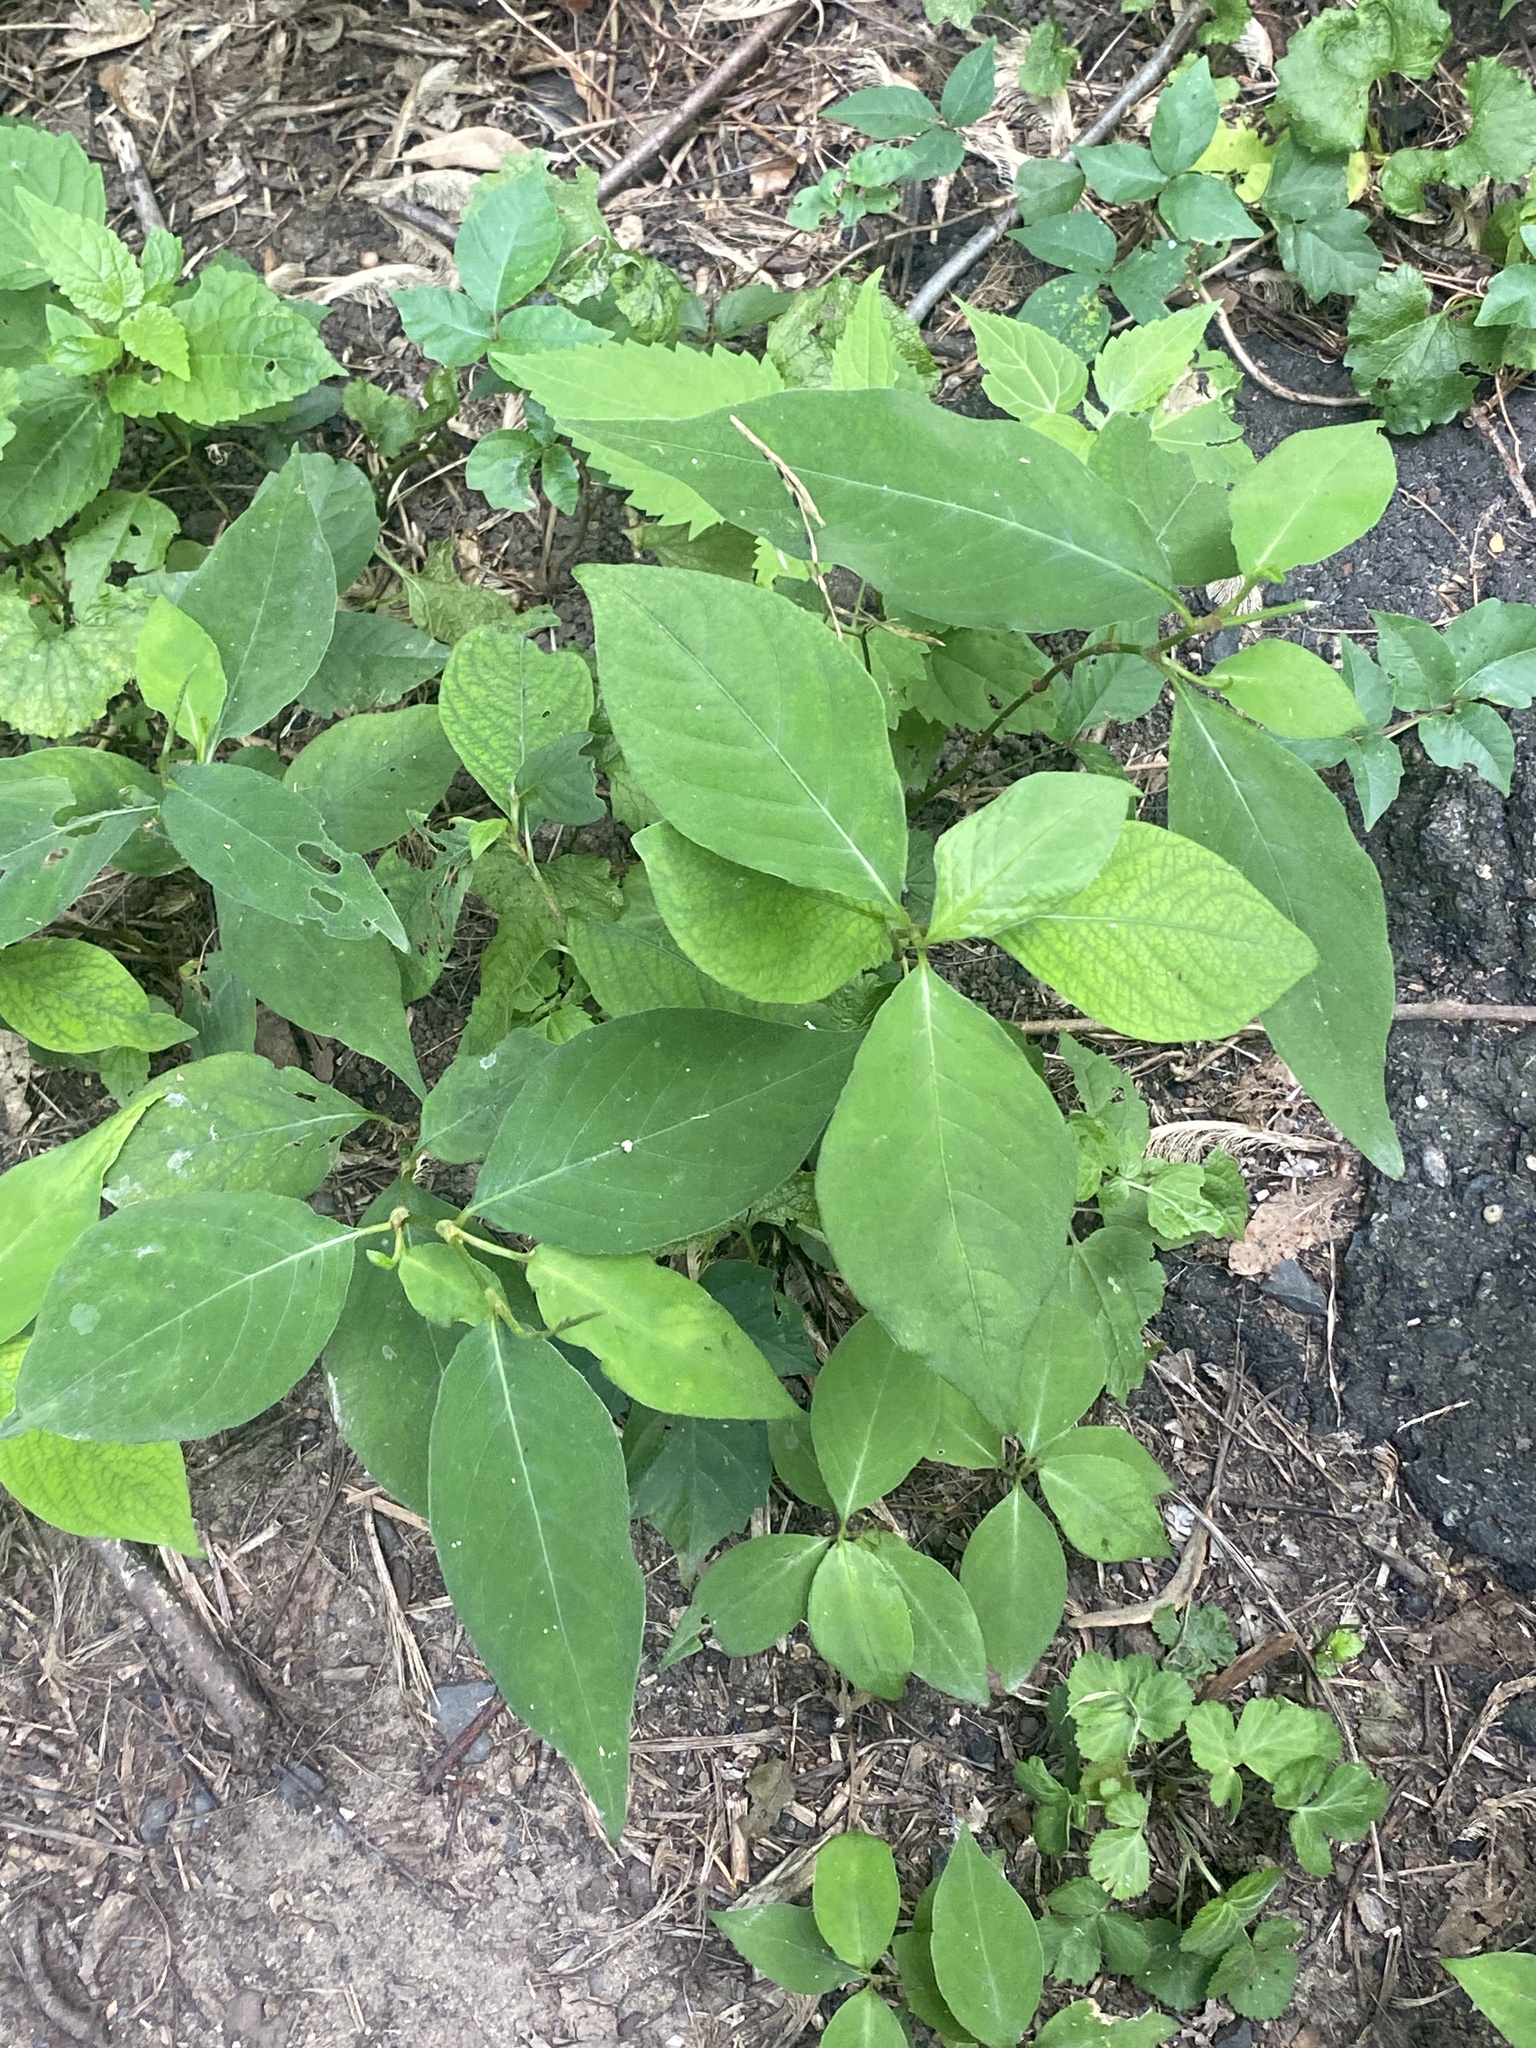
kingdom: Plantae
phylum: Tracheophyta
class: Magnoliopsida
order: Caryophyllales
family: Polygonaceae
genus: Persicaria
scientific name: Persicaria virginiana
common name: Jumpseed
